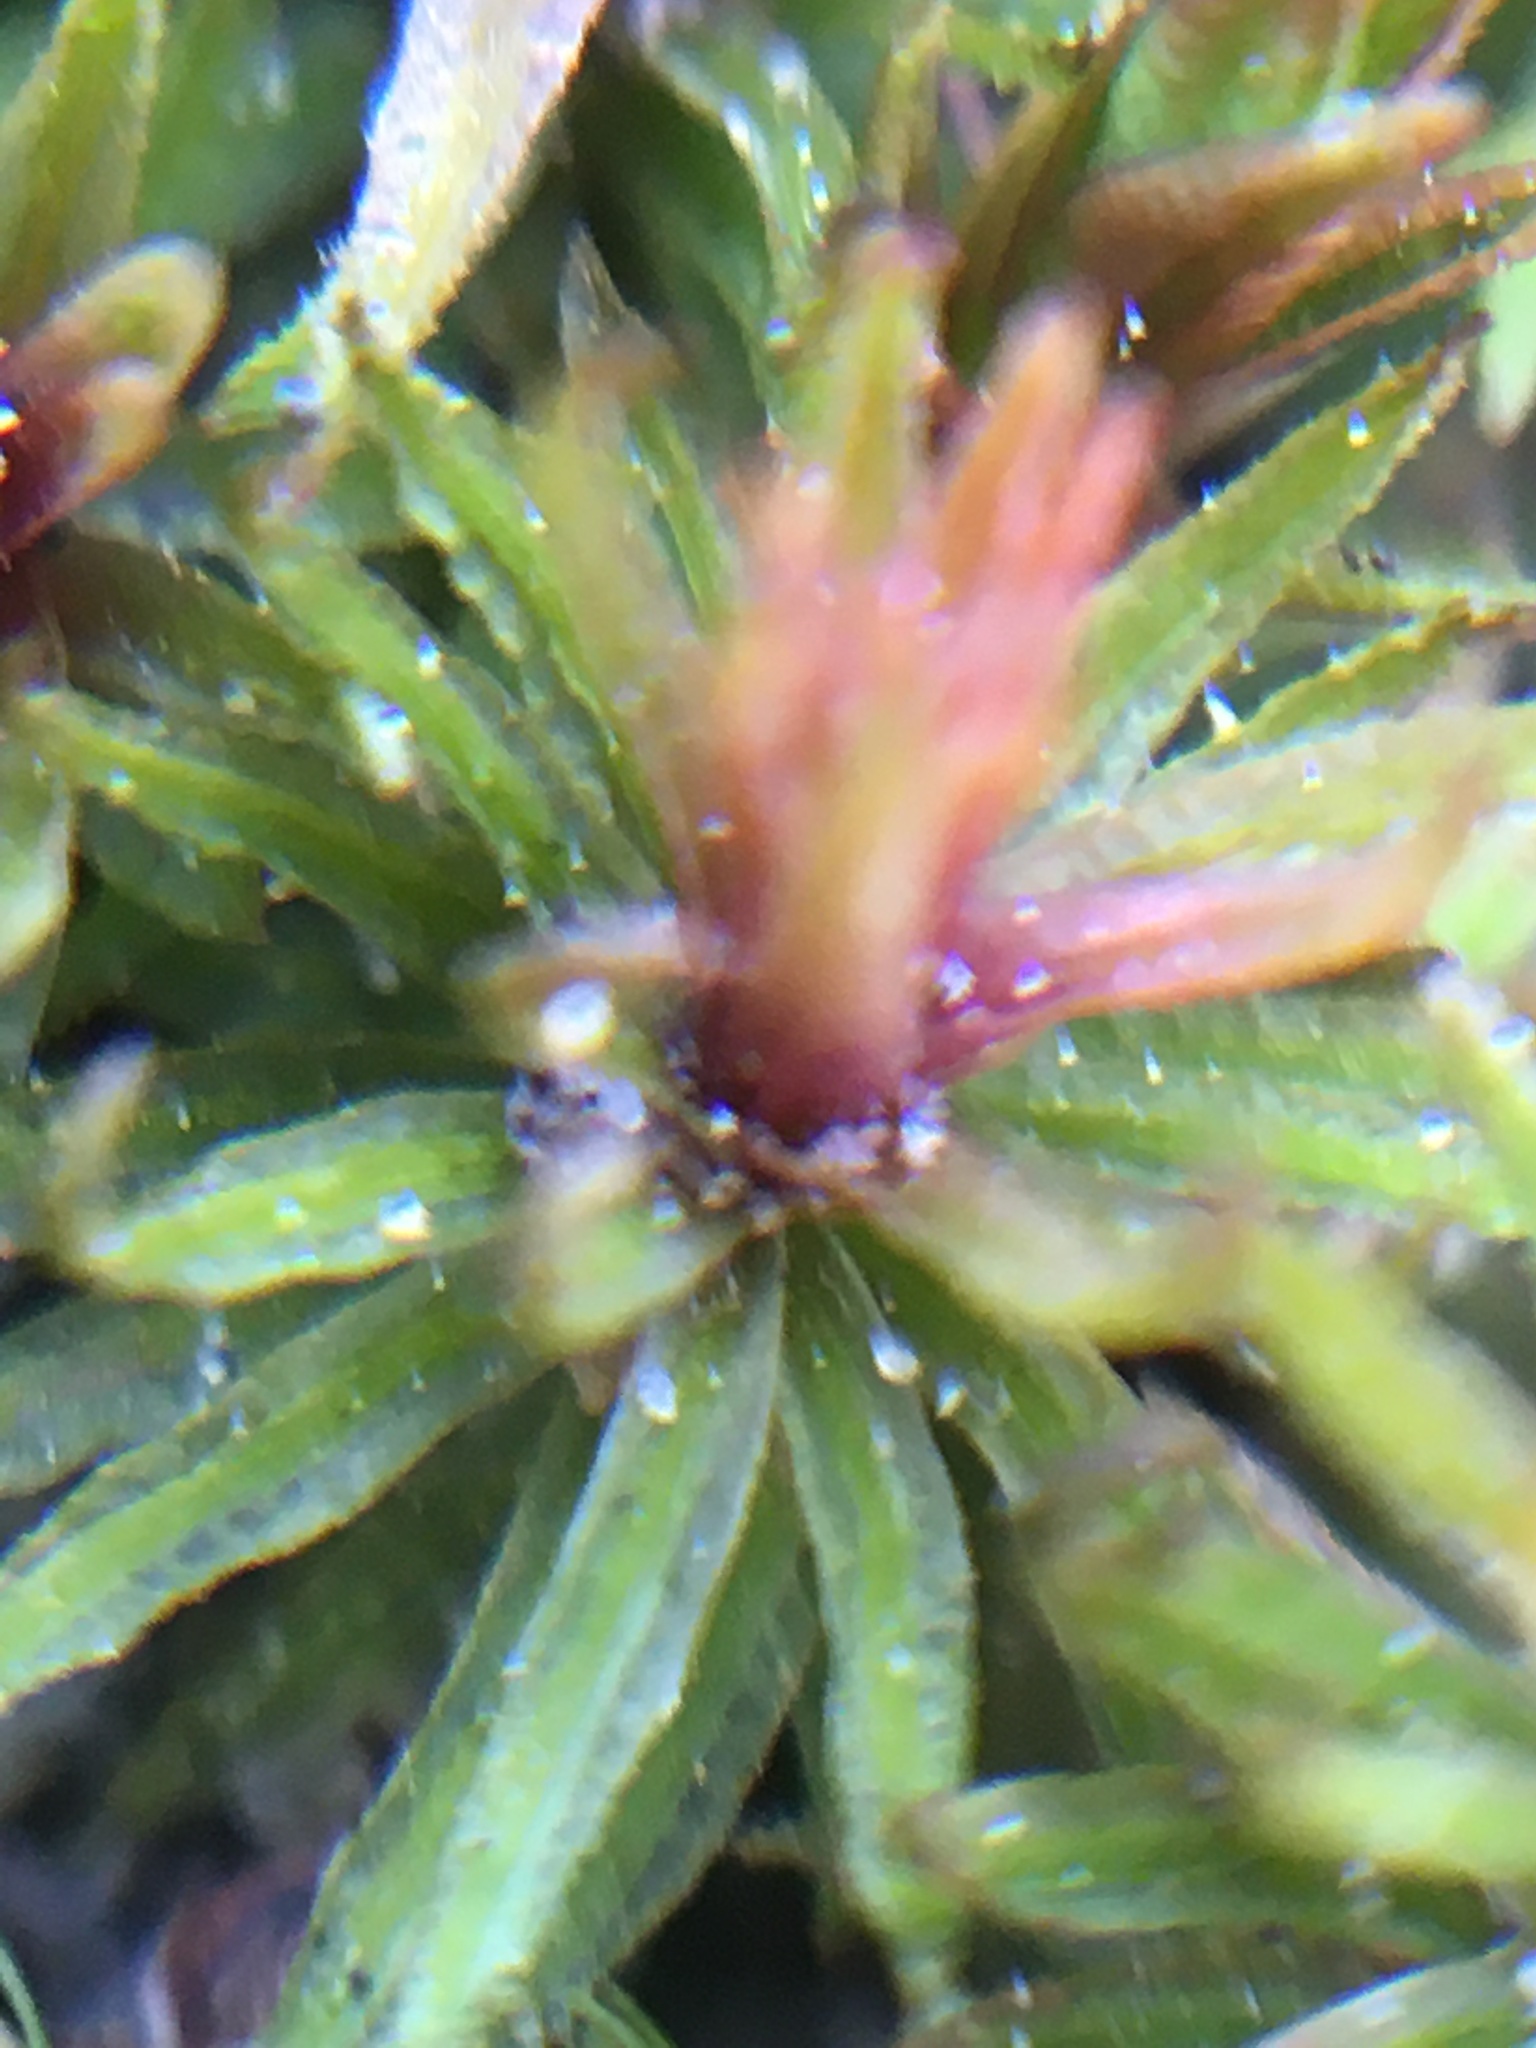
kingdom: Plantae
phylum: Bryophyta
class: Polytrichopsida
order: Polytrichales
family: Polytrichaceae
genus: Atrichum
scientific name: Atrichum angustatum
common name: Lesser smoothcap
